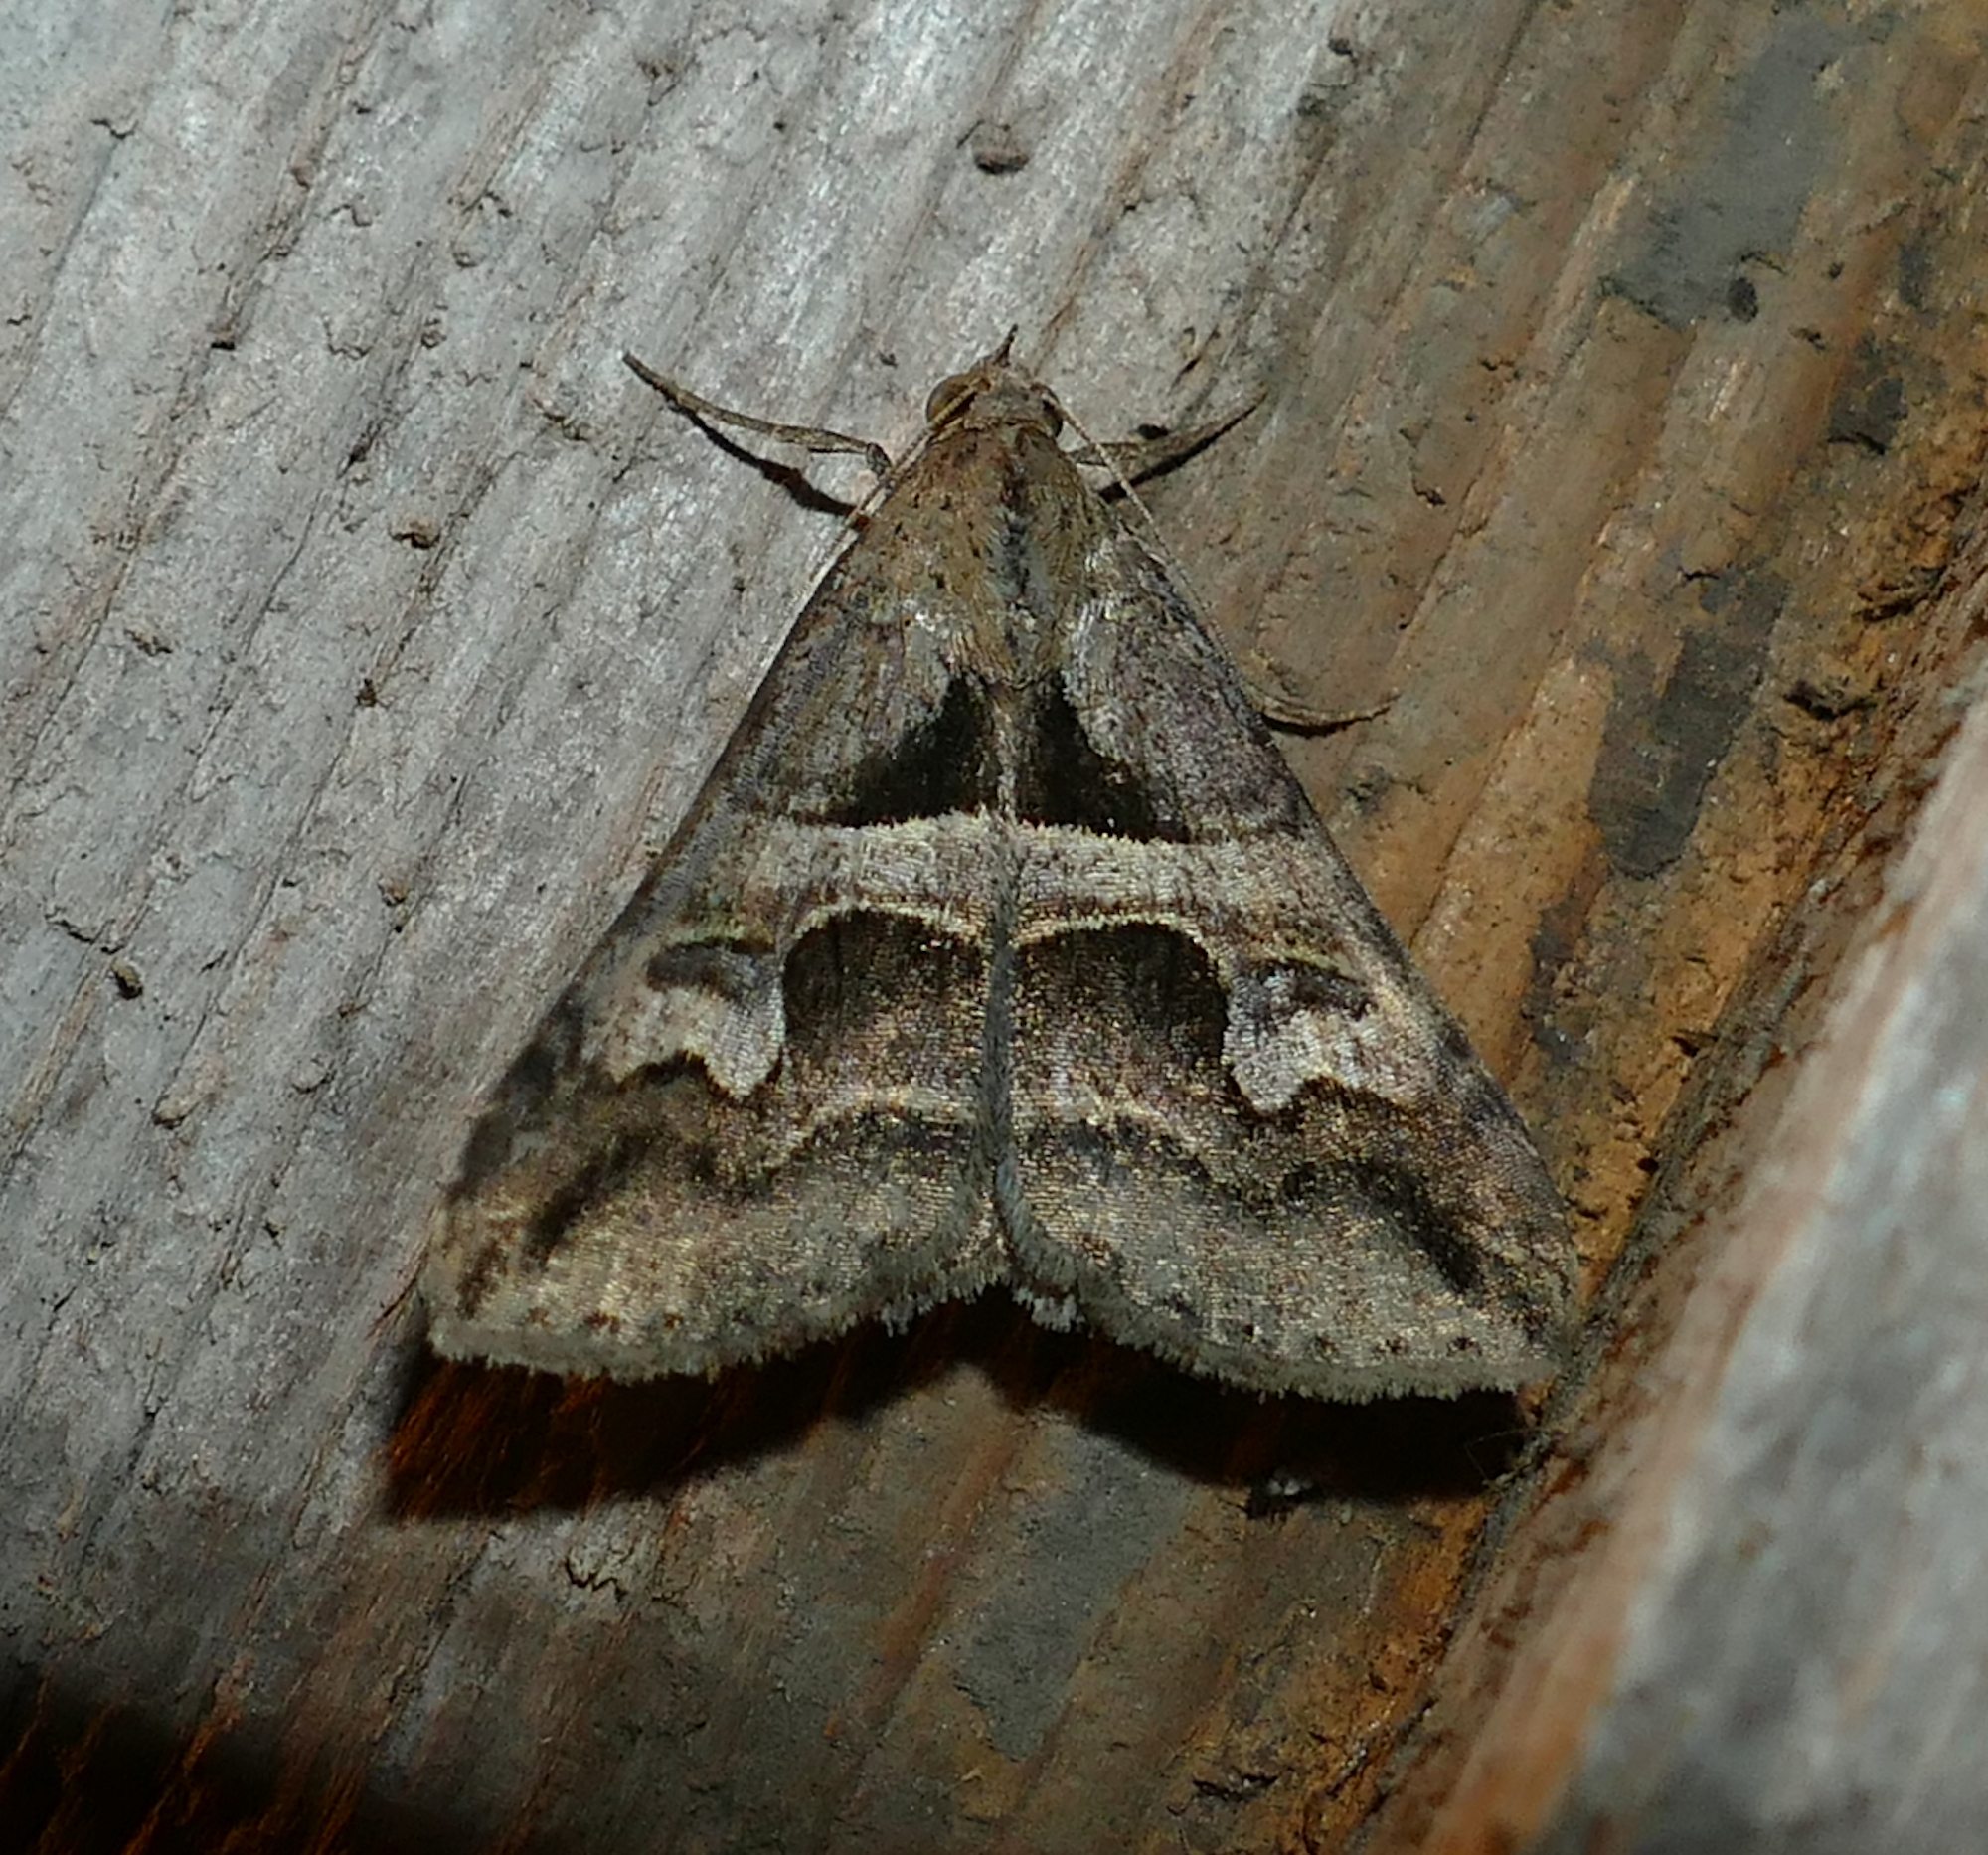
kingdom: Animalia
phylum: Arthropoda
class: Insecta
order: Lepidoptera
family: Erebidae
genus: Melipotis
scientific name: Melipotis cellaris
